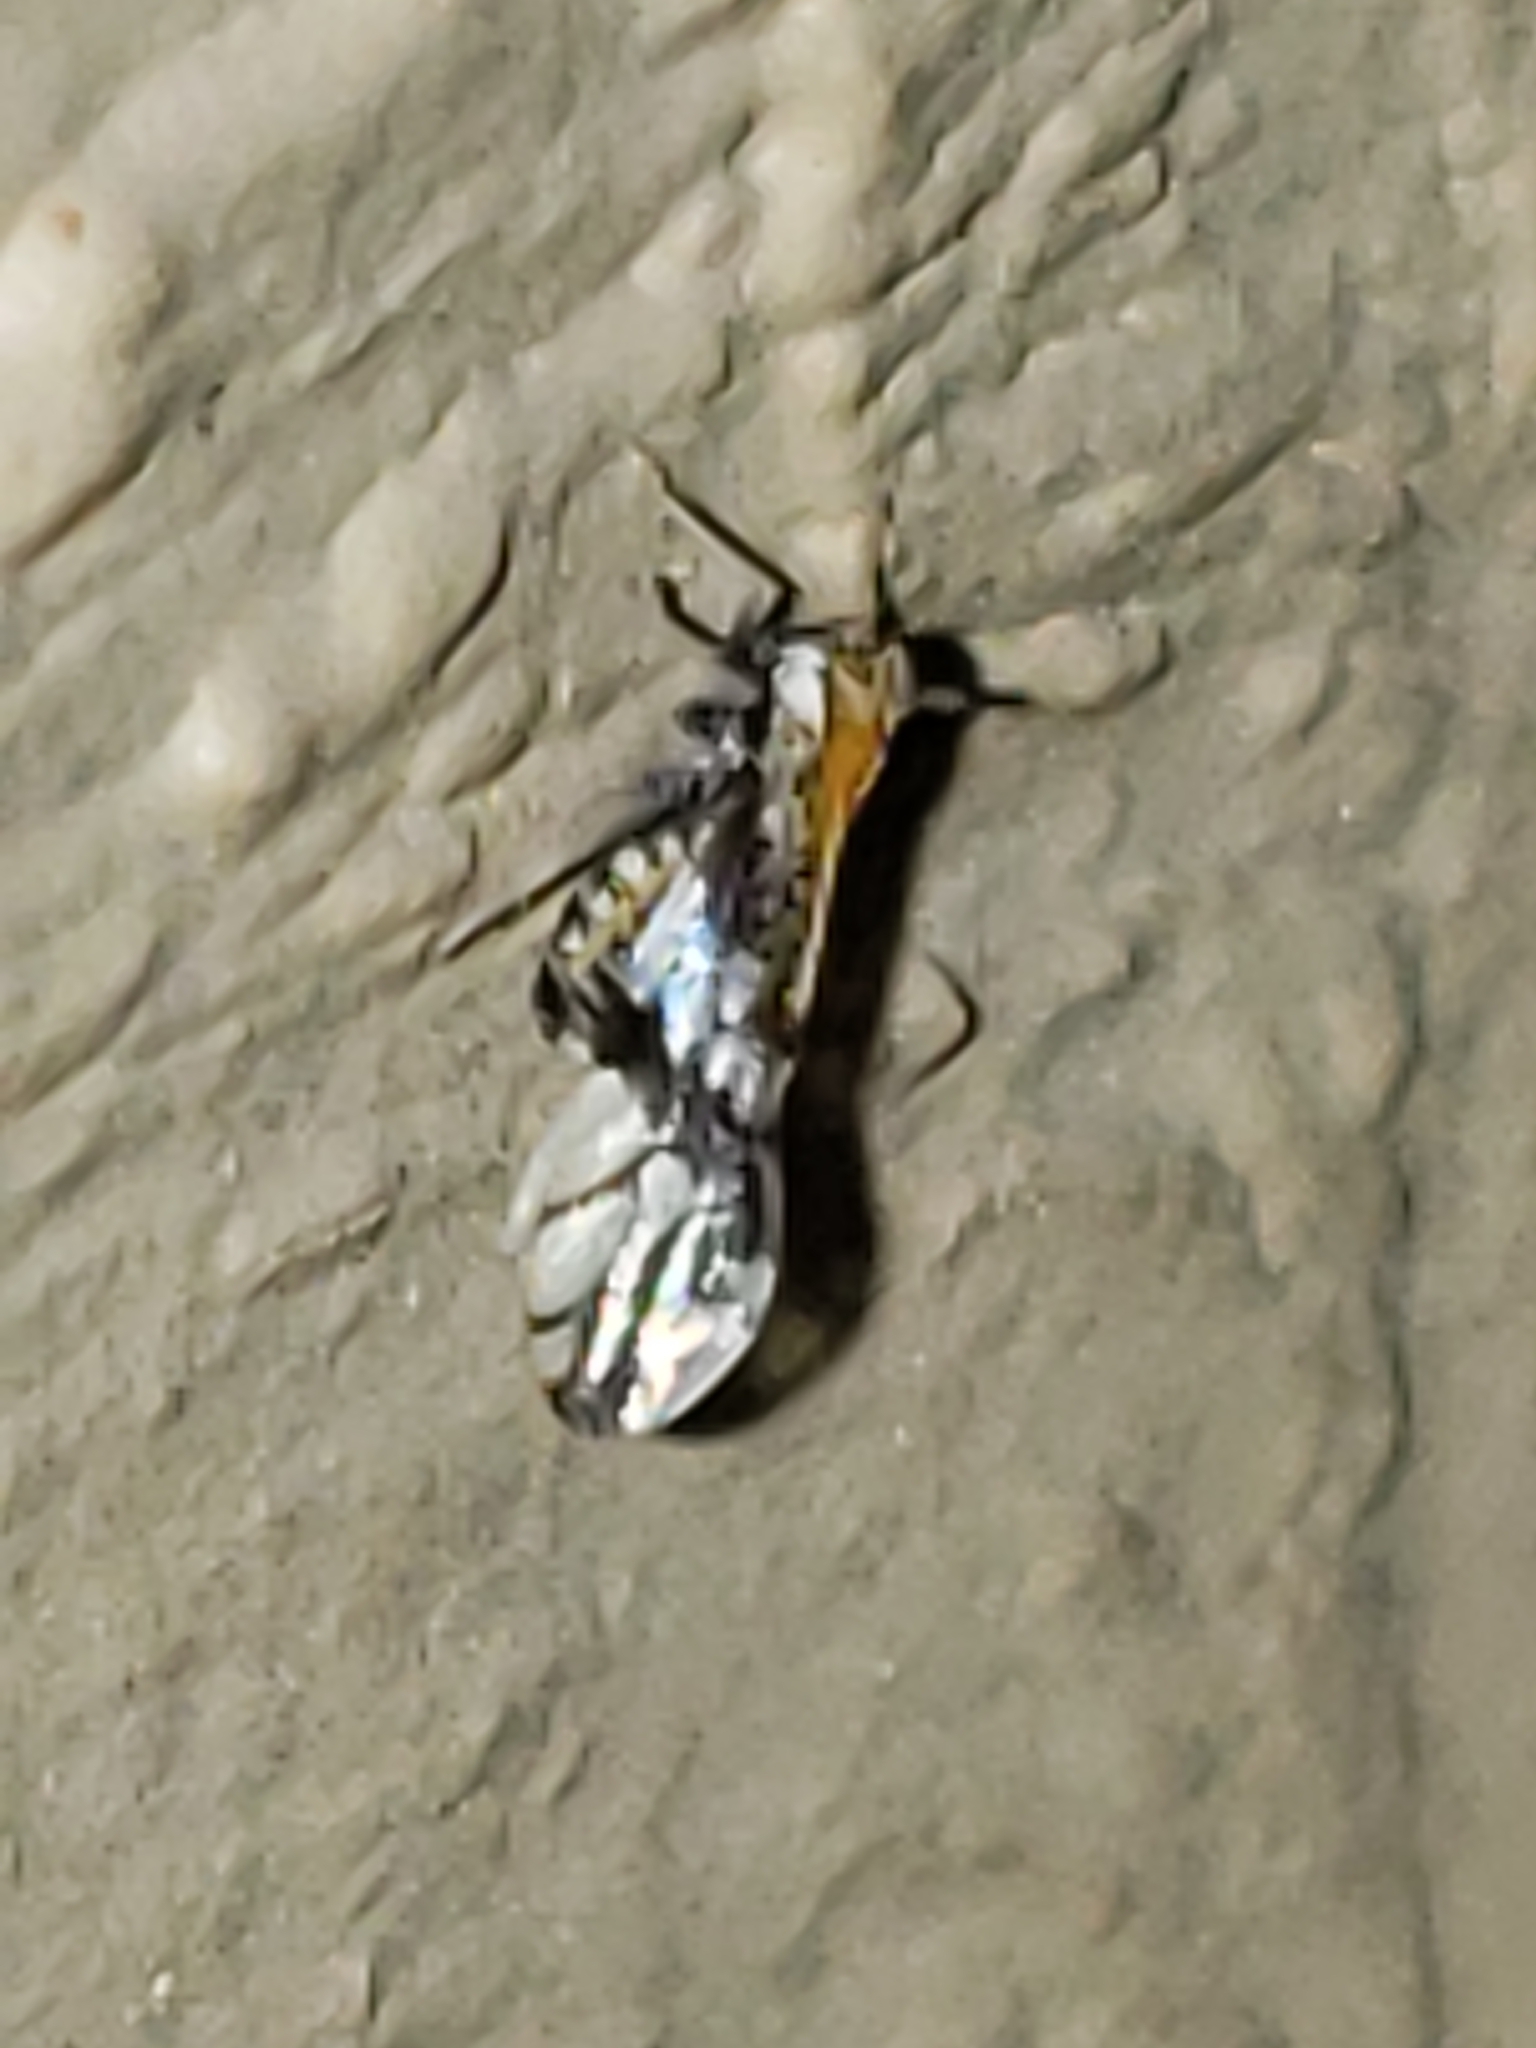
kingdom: Animalia
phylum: Arthropoda
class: Insecta
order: Hemiptera
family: Delphacidae
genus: Liburniella
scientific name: Liburniella ornata
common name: Ornate planthopper
